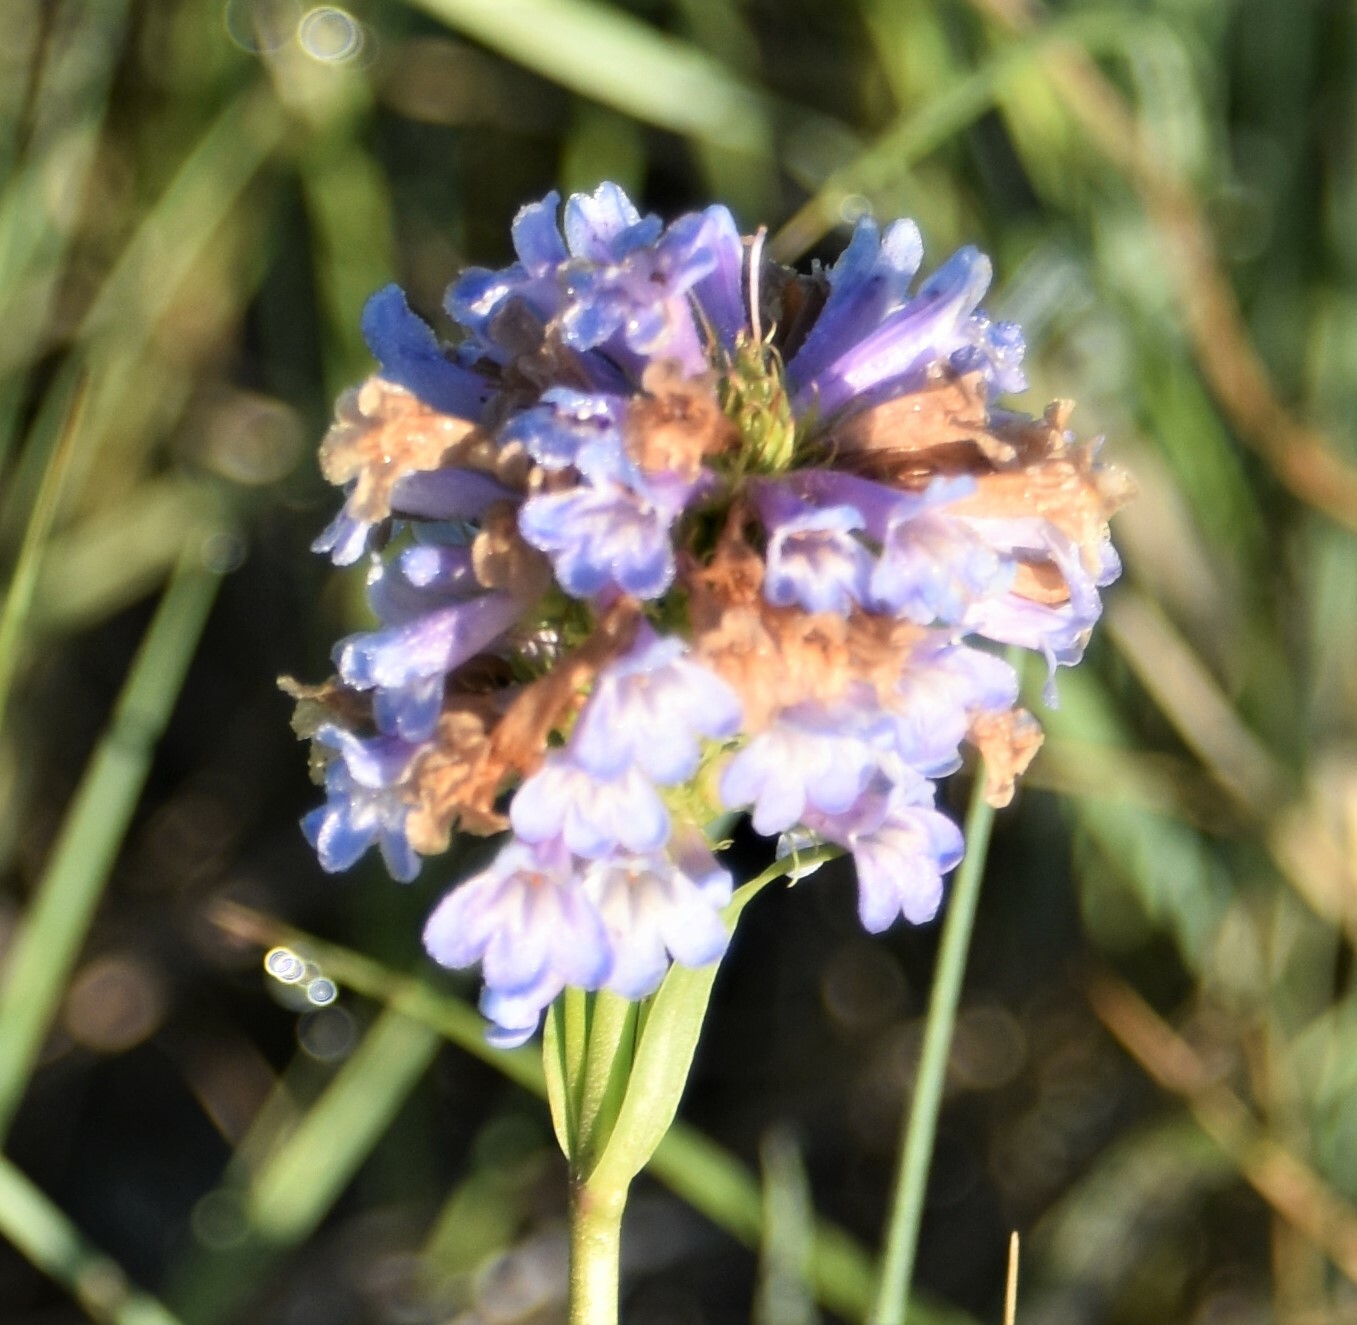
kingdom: Plantae
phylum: Tracheophyta
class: Magnoliopsida
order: Lamiales
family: Plantaginaceae
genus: Penstemon
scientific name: Penstemon procerus
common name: Small-flower penstemon
